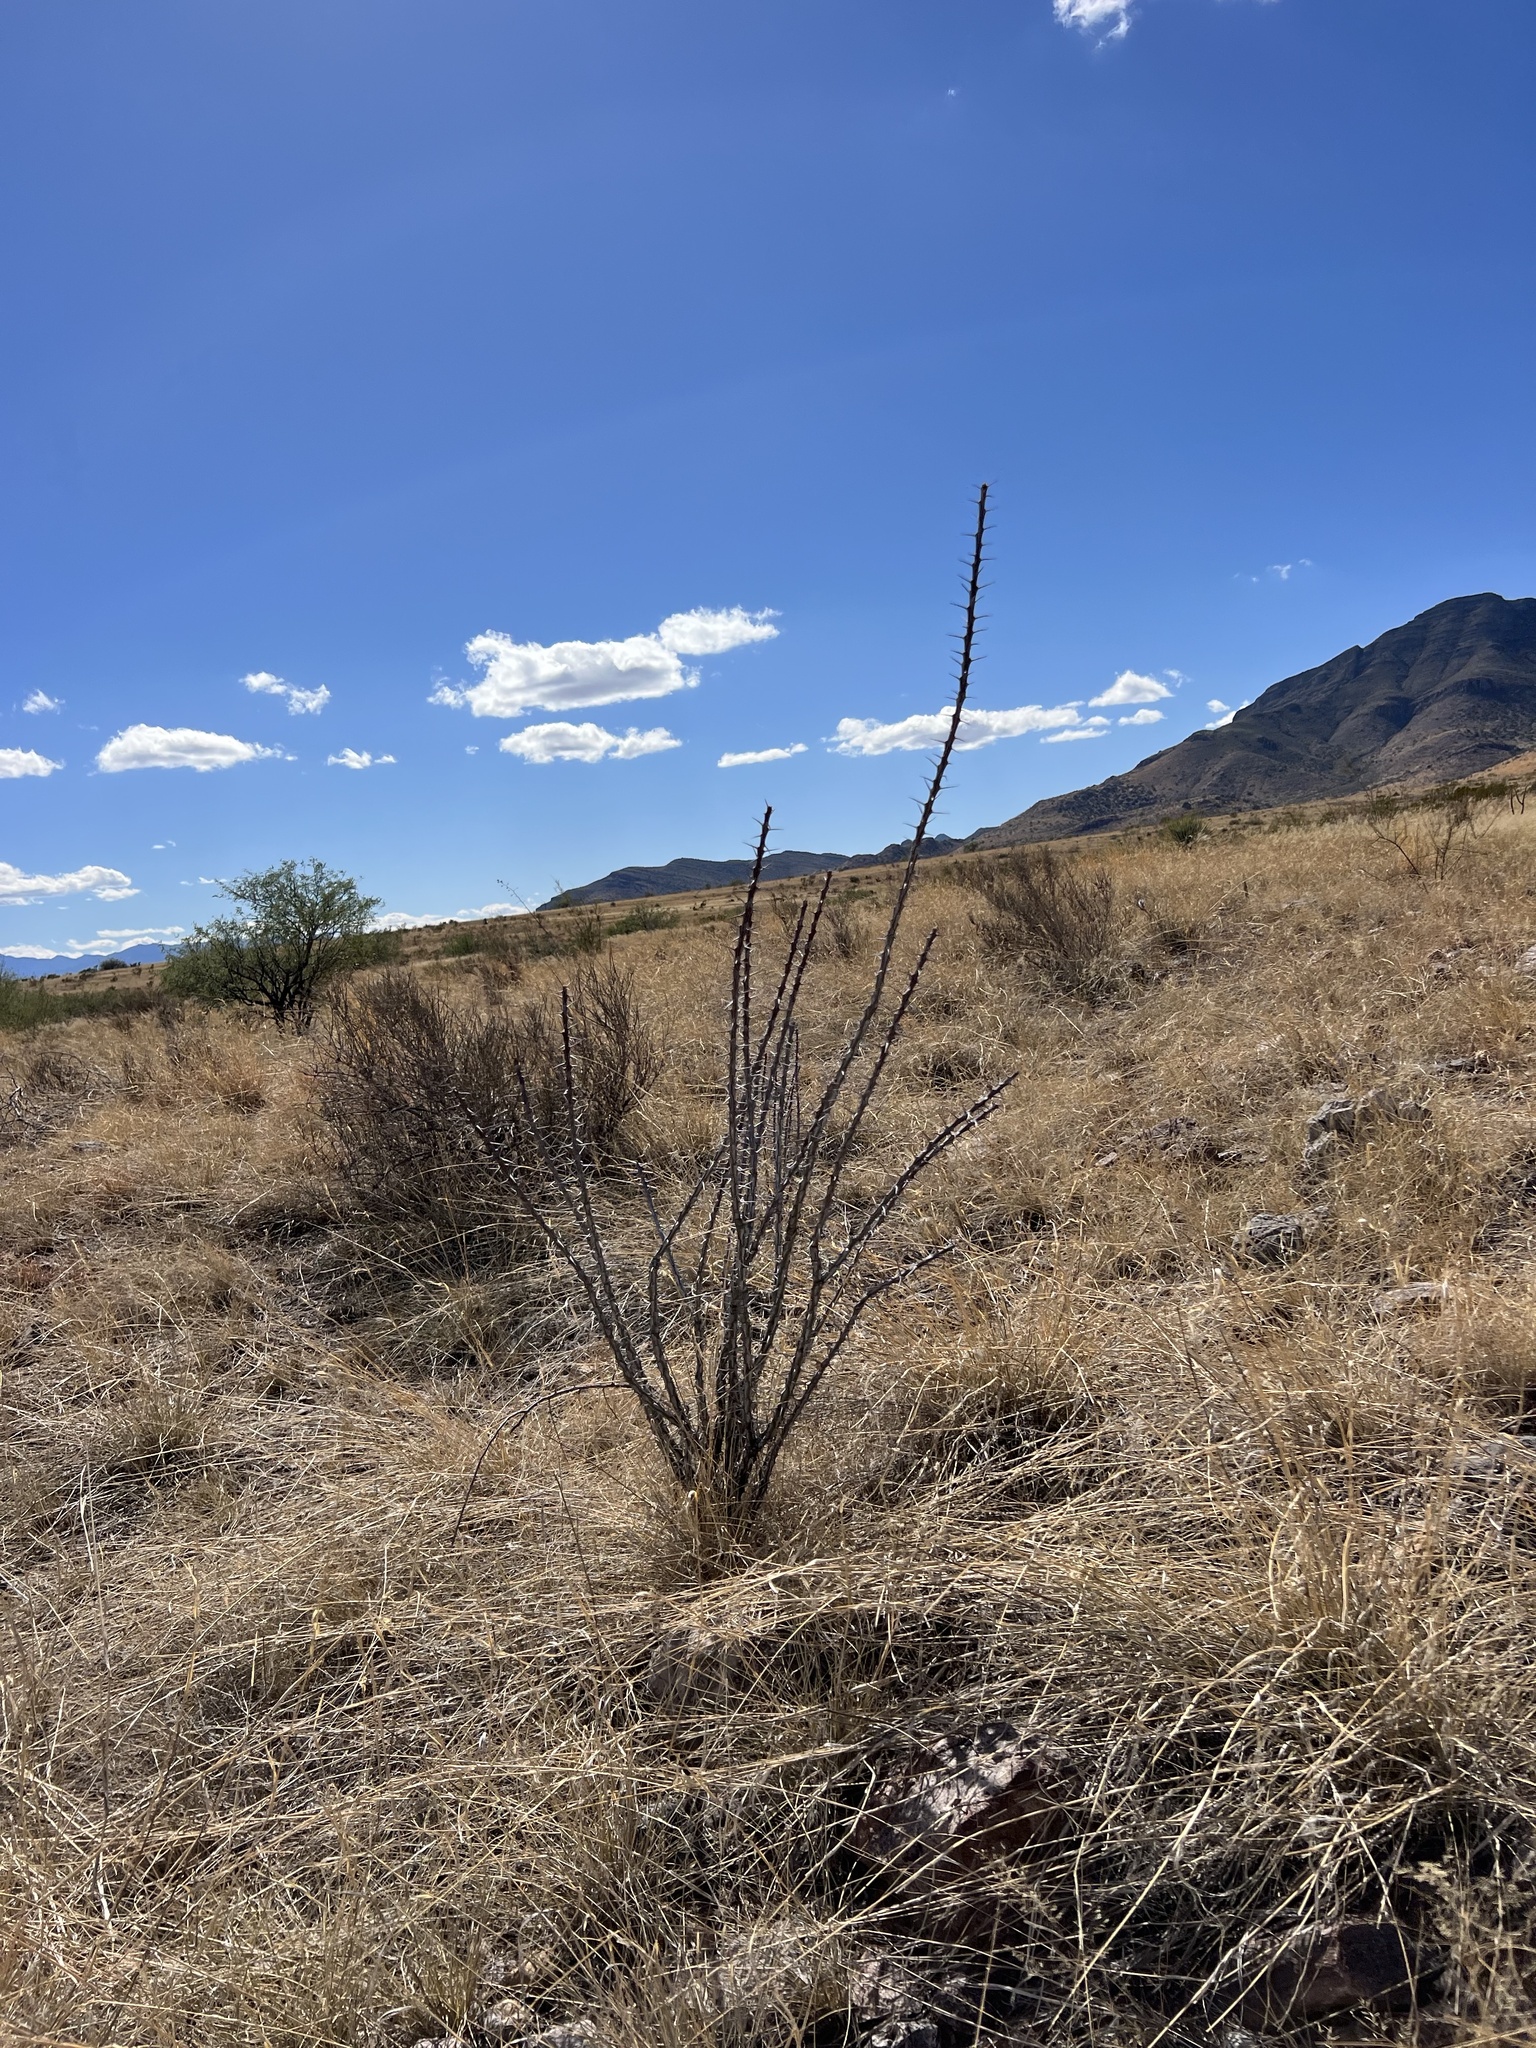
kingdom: Plantae
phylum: Tracheophyta
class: Magnoliopsida
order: Ericales
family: Fouquieriaceae
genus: Fouquieria
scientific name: Fouquieria splendens
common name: Vine-cactus
